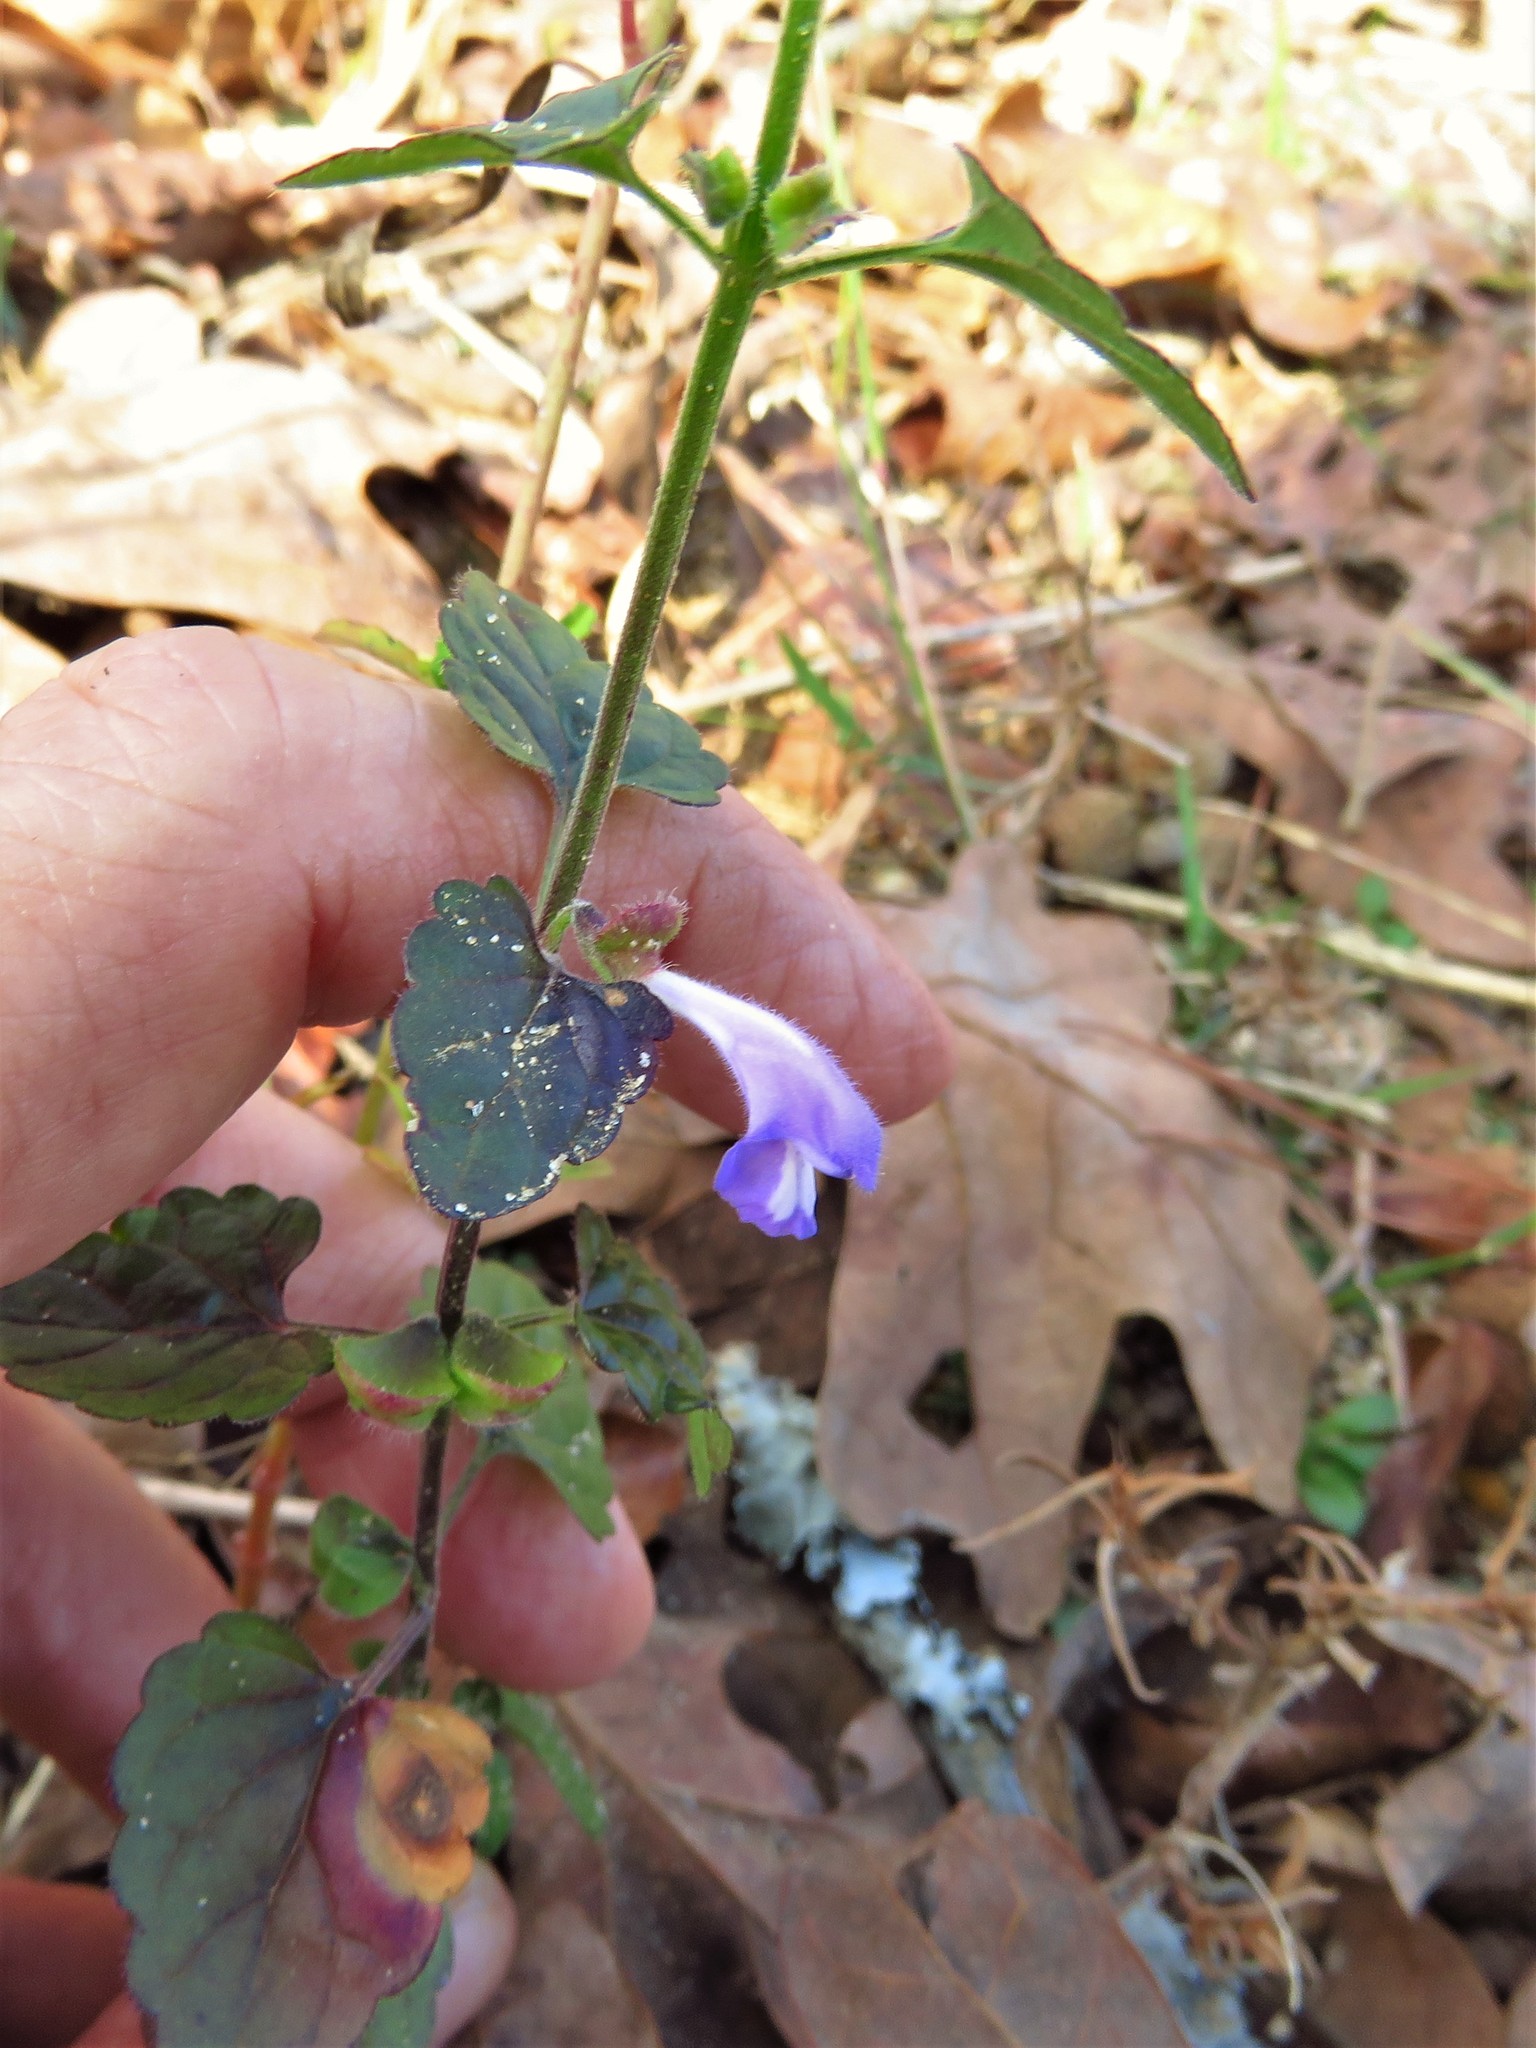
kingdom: Plantae
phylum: Tracheophyta
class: Magnoliopsida
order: Lamiales
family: Lamiaceae
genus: Scutellaria
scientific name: Scutellaria cardiophylla
